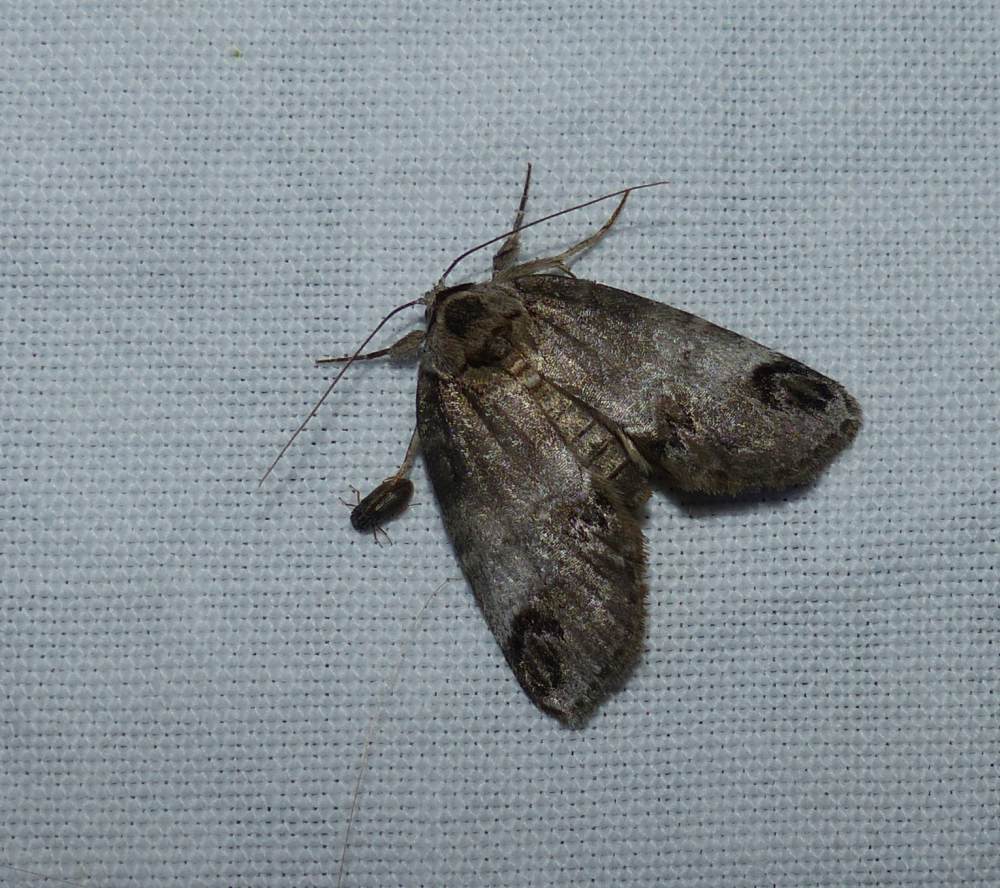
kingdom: Animalia
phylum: Arthropoda
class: Insecta
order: Lepidoptera
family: Nolidae
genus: Baileya
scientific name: Baileya dormitans
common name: Sleeping baileya moth
